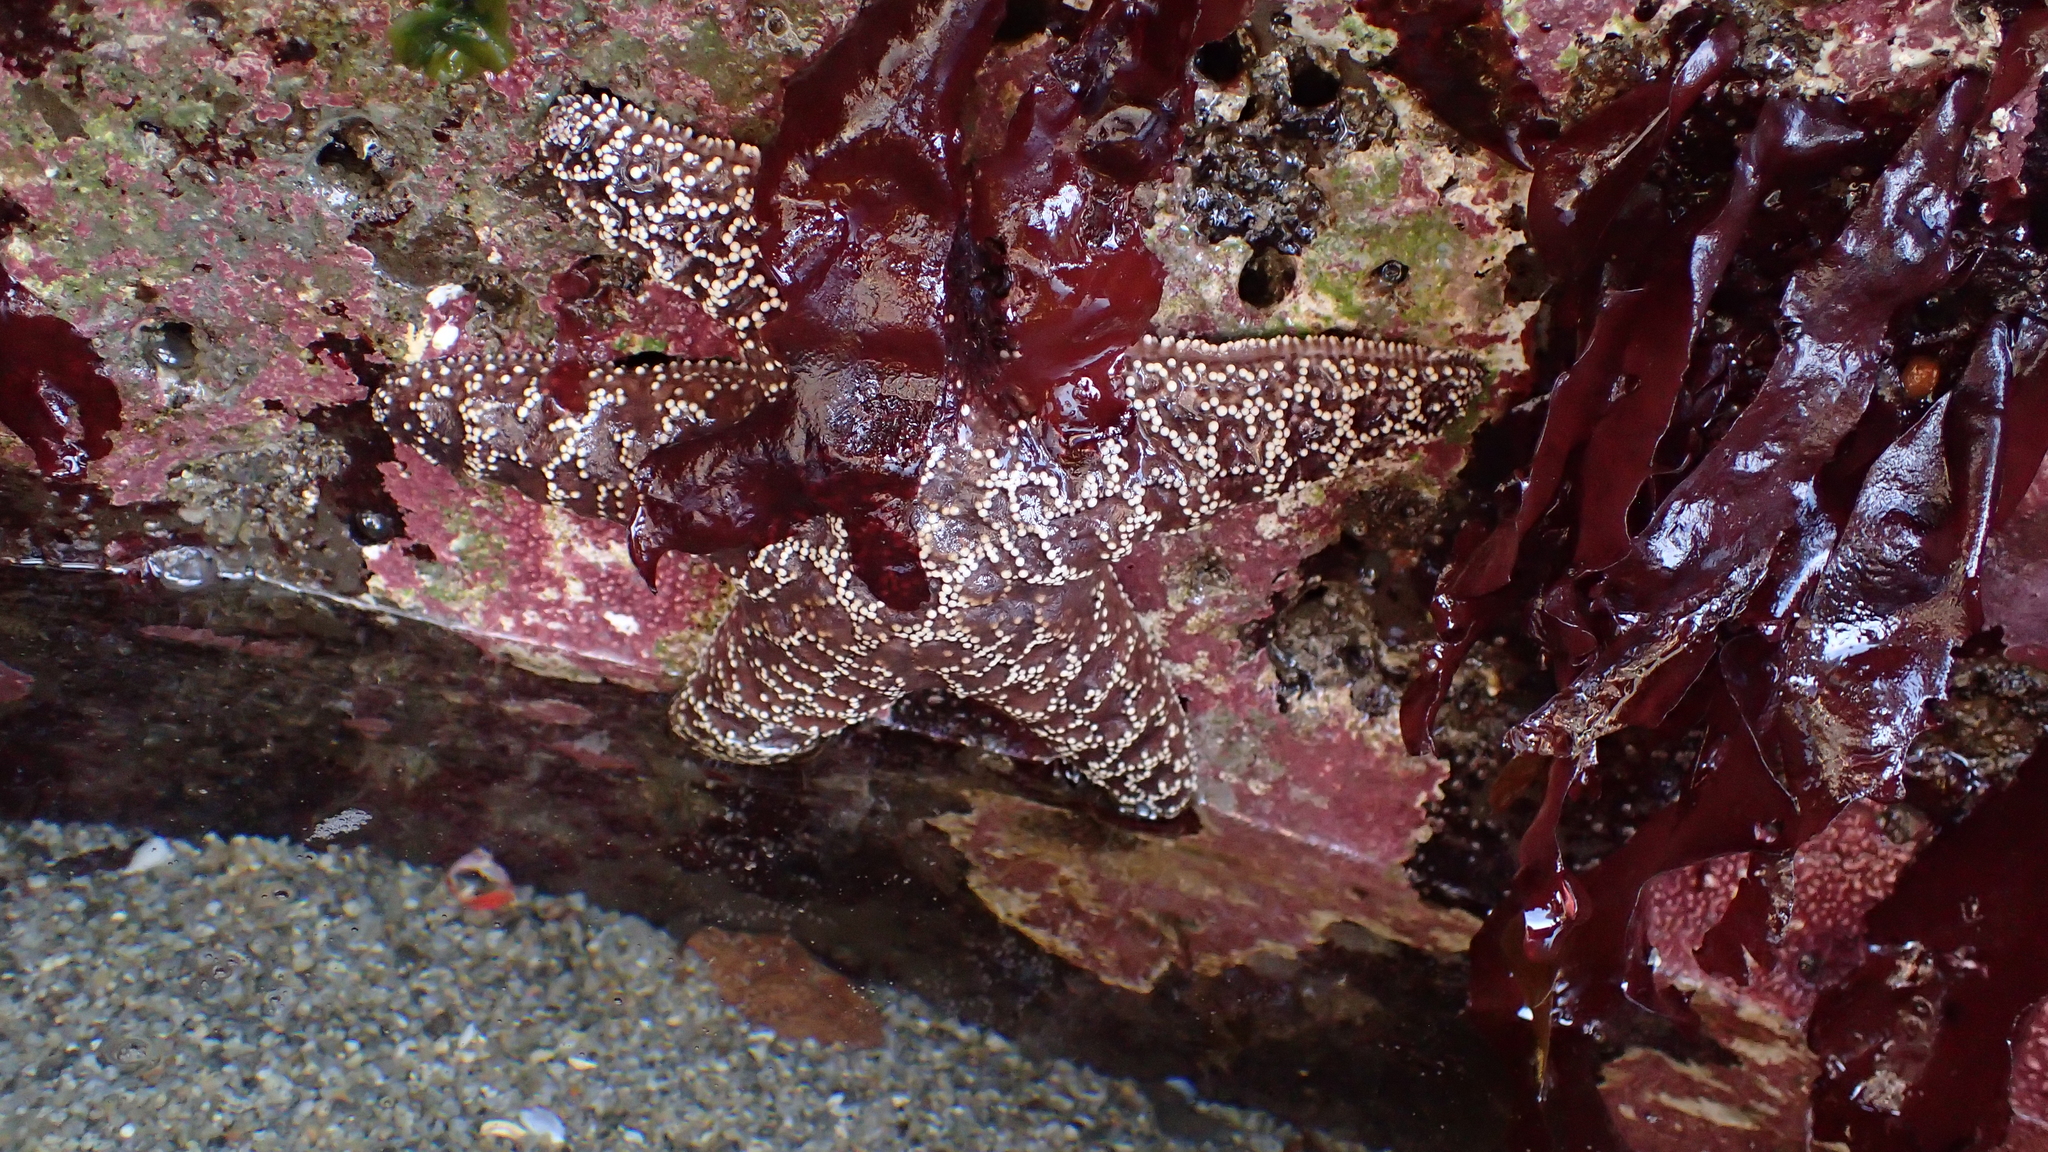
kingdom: Animalia
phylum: Echinodermata
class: Asteroidea
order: Forcipulatida
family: Asteriidae
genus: Pisaster
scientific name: Pisaster ochraceus
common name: Ochre stars
